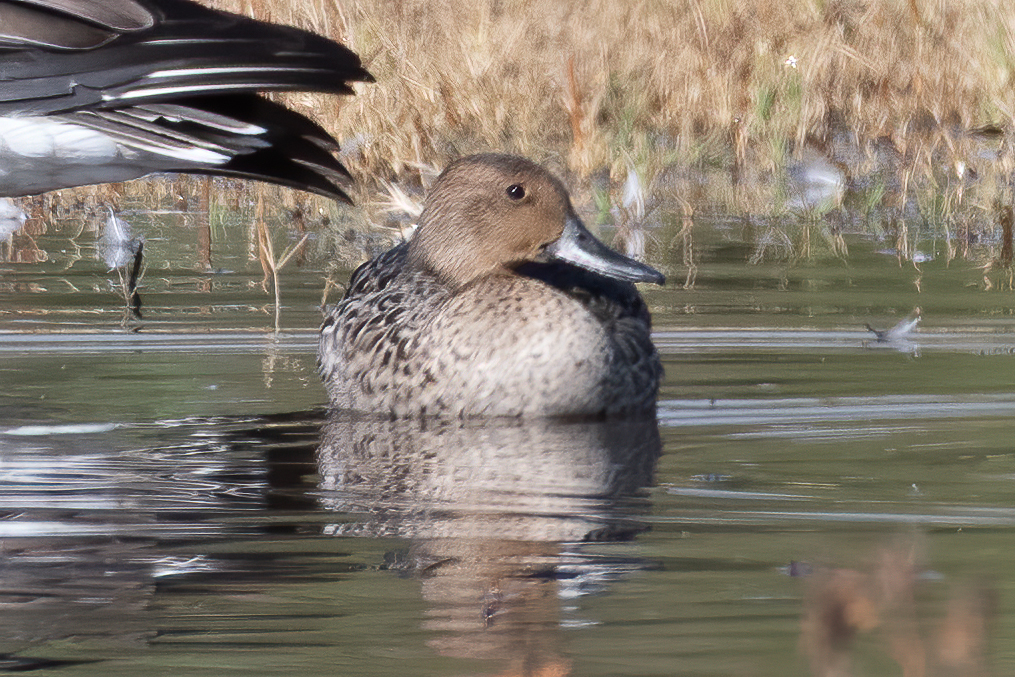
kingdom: Animalia
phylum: Chordata
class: Aves
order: Anseriformes
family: Anatidae
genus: Anas
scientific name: Anas acuta
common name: Northern pintail
